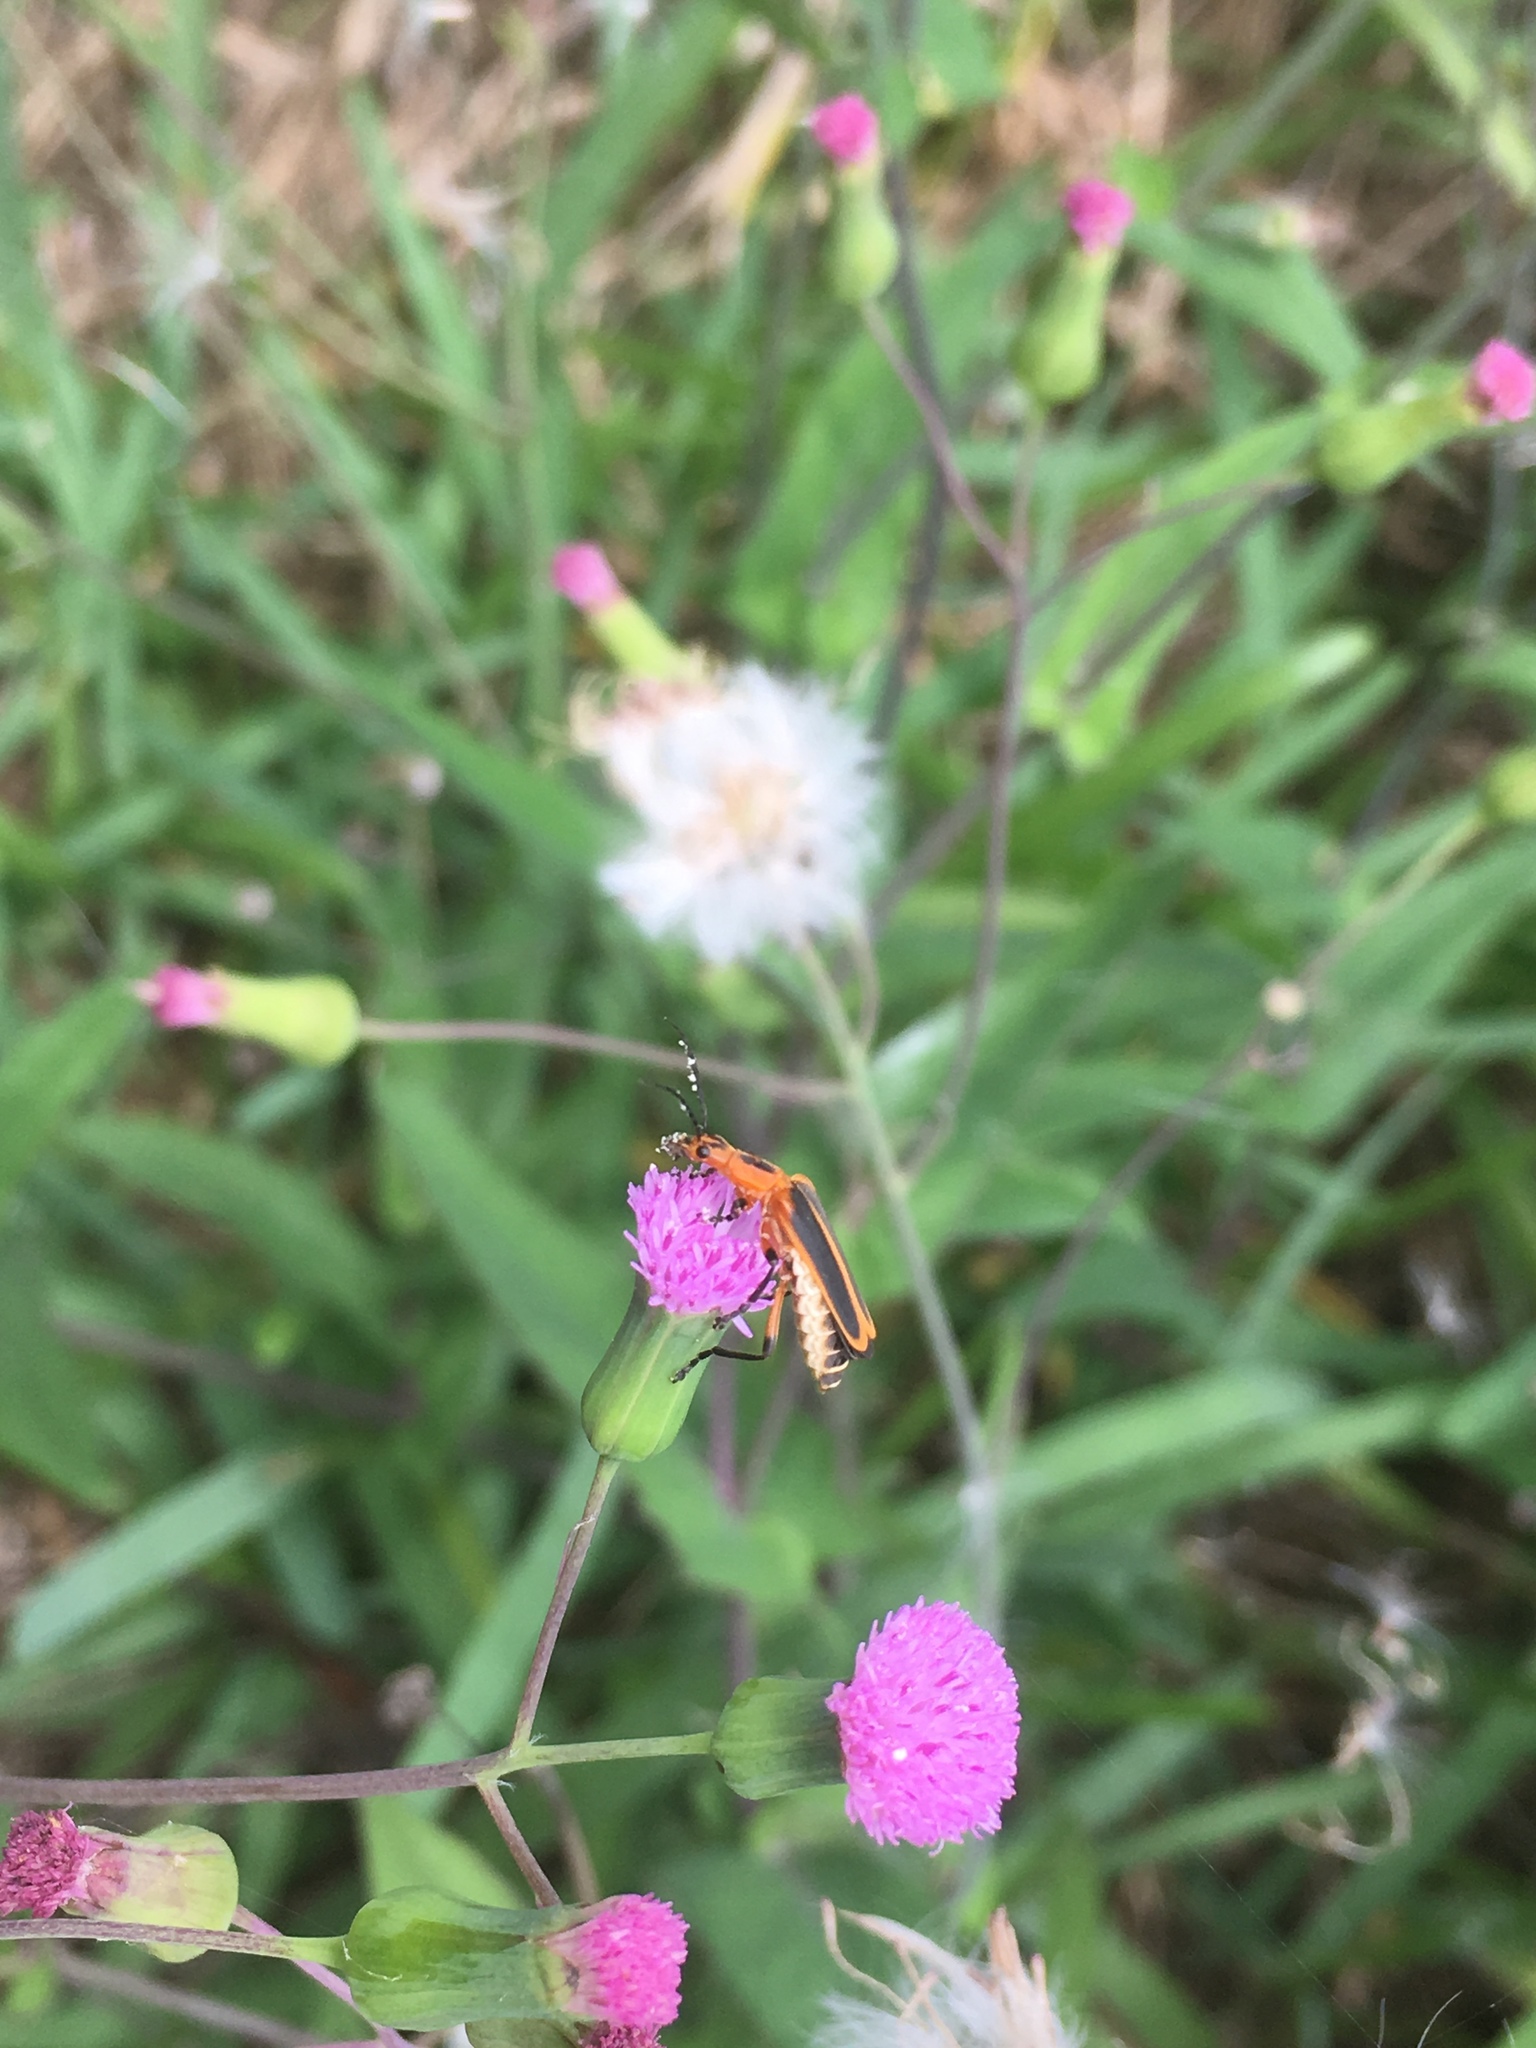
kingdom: Animalia
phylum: Arthropoda
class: Insecta
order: Coleoptera
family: Cantharidae
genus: Chauliognathus
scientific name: Chauliognathus marginatus
